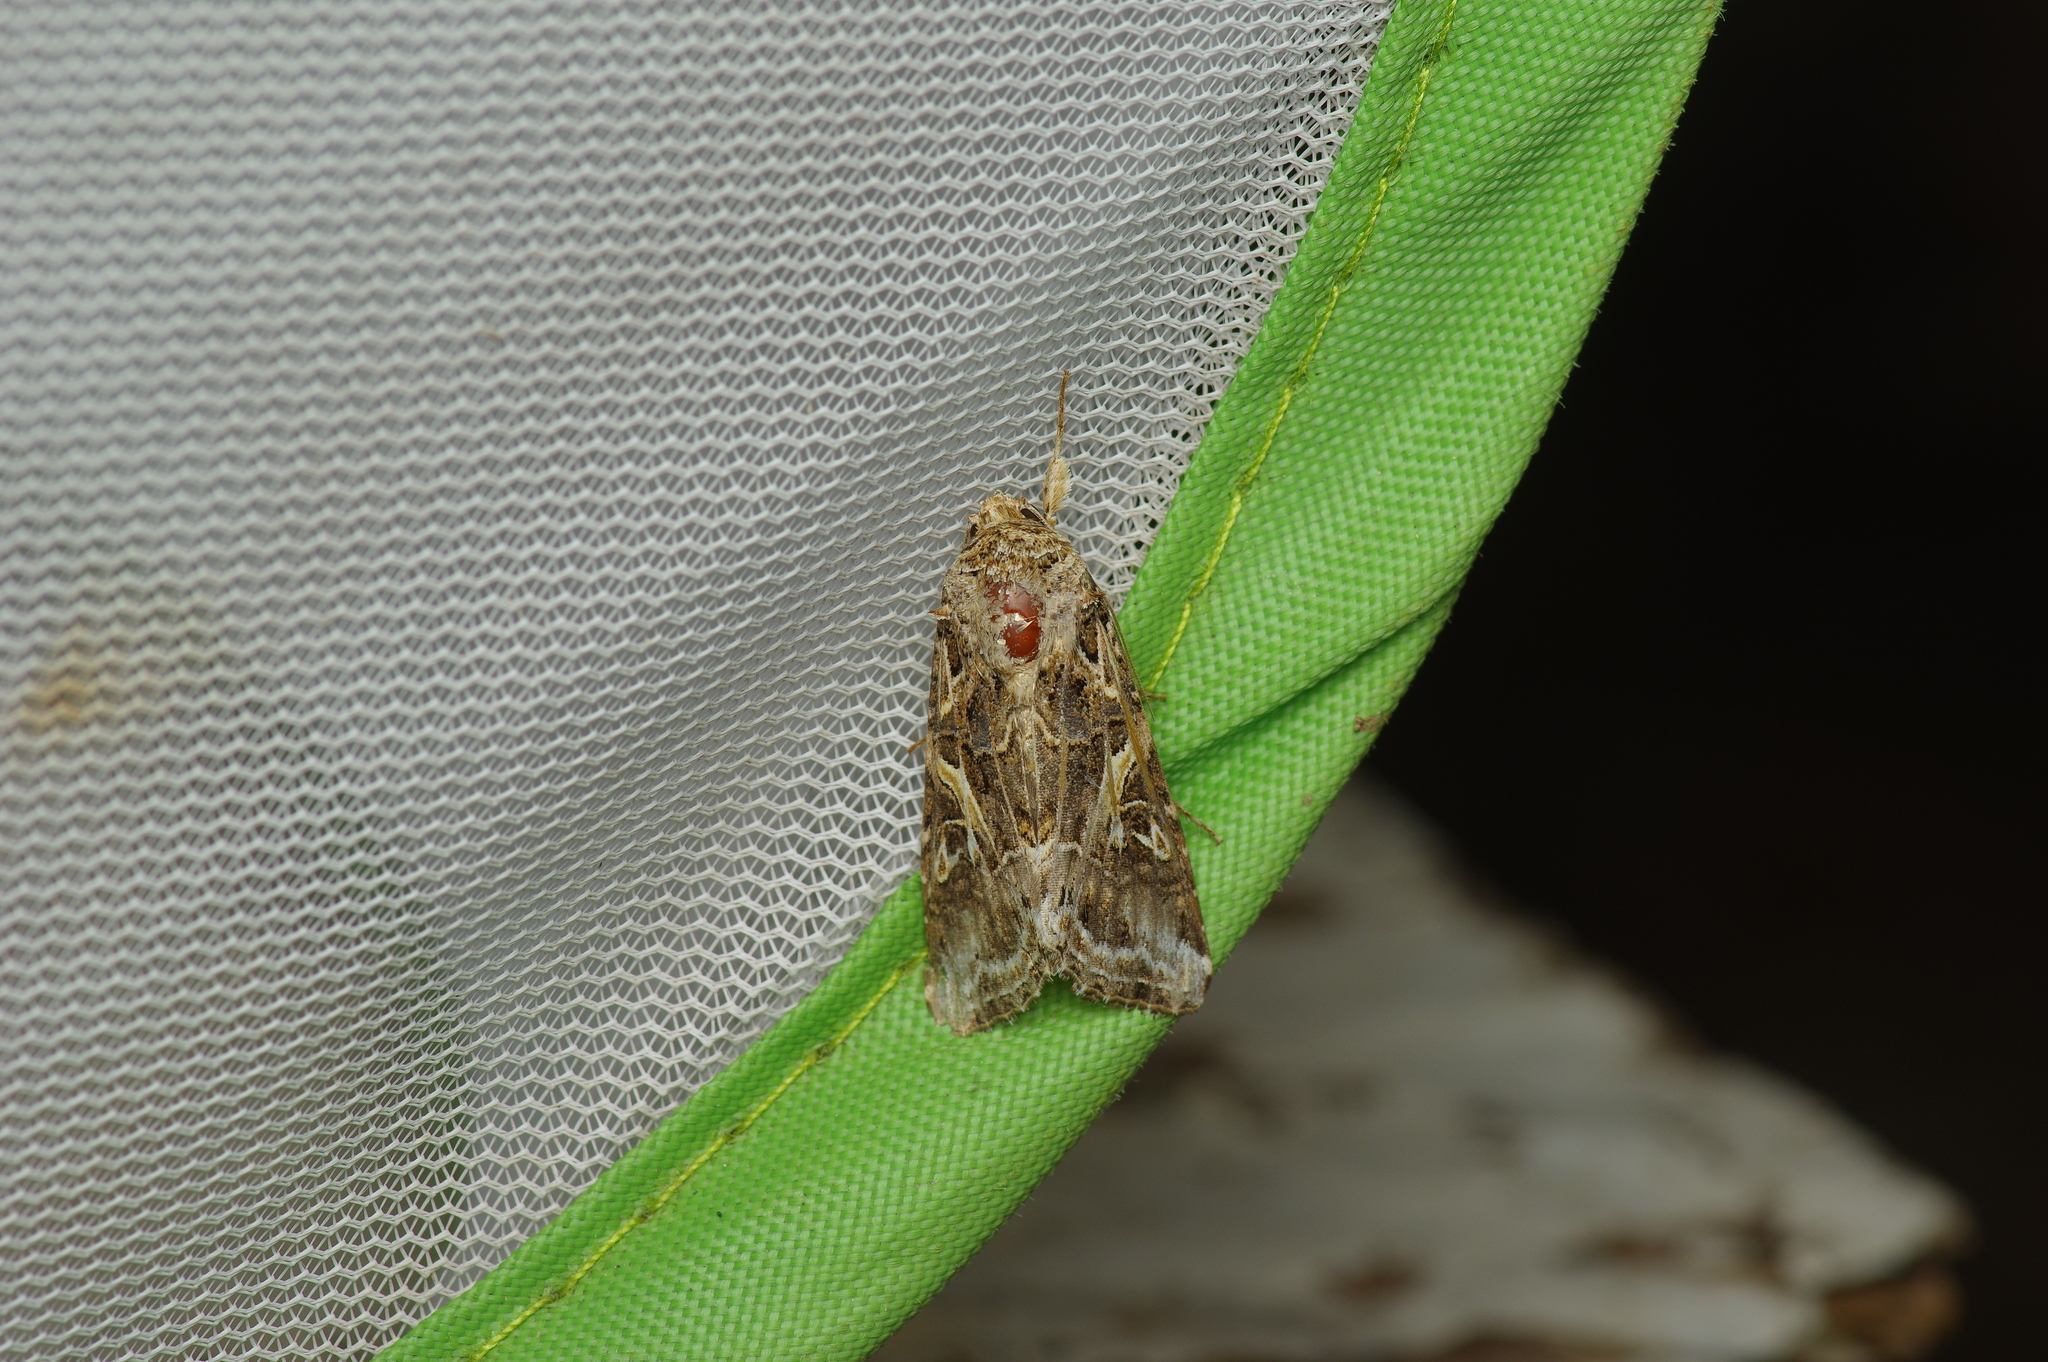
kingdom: Animalia
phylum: Arthropoda
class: Insecta
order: Lepidoptera
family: Noctuidae
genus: Spodoptera
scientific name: Spodoptera ornithogalli
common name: Yellow-striped armyworm
